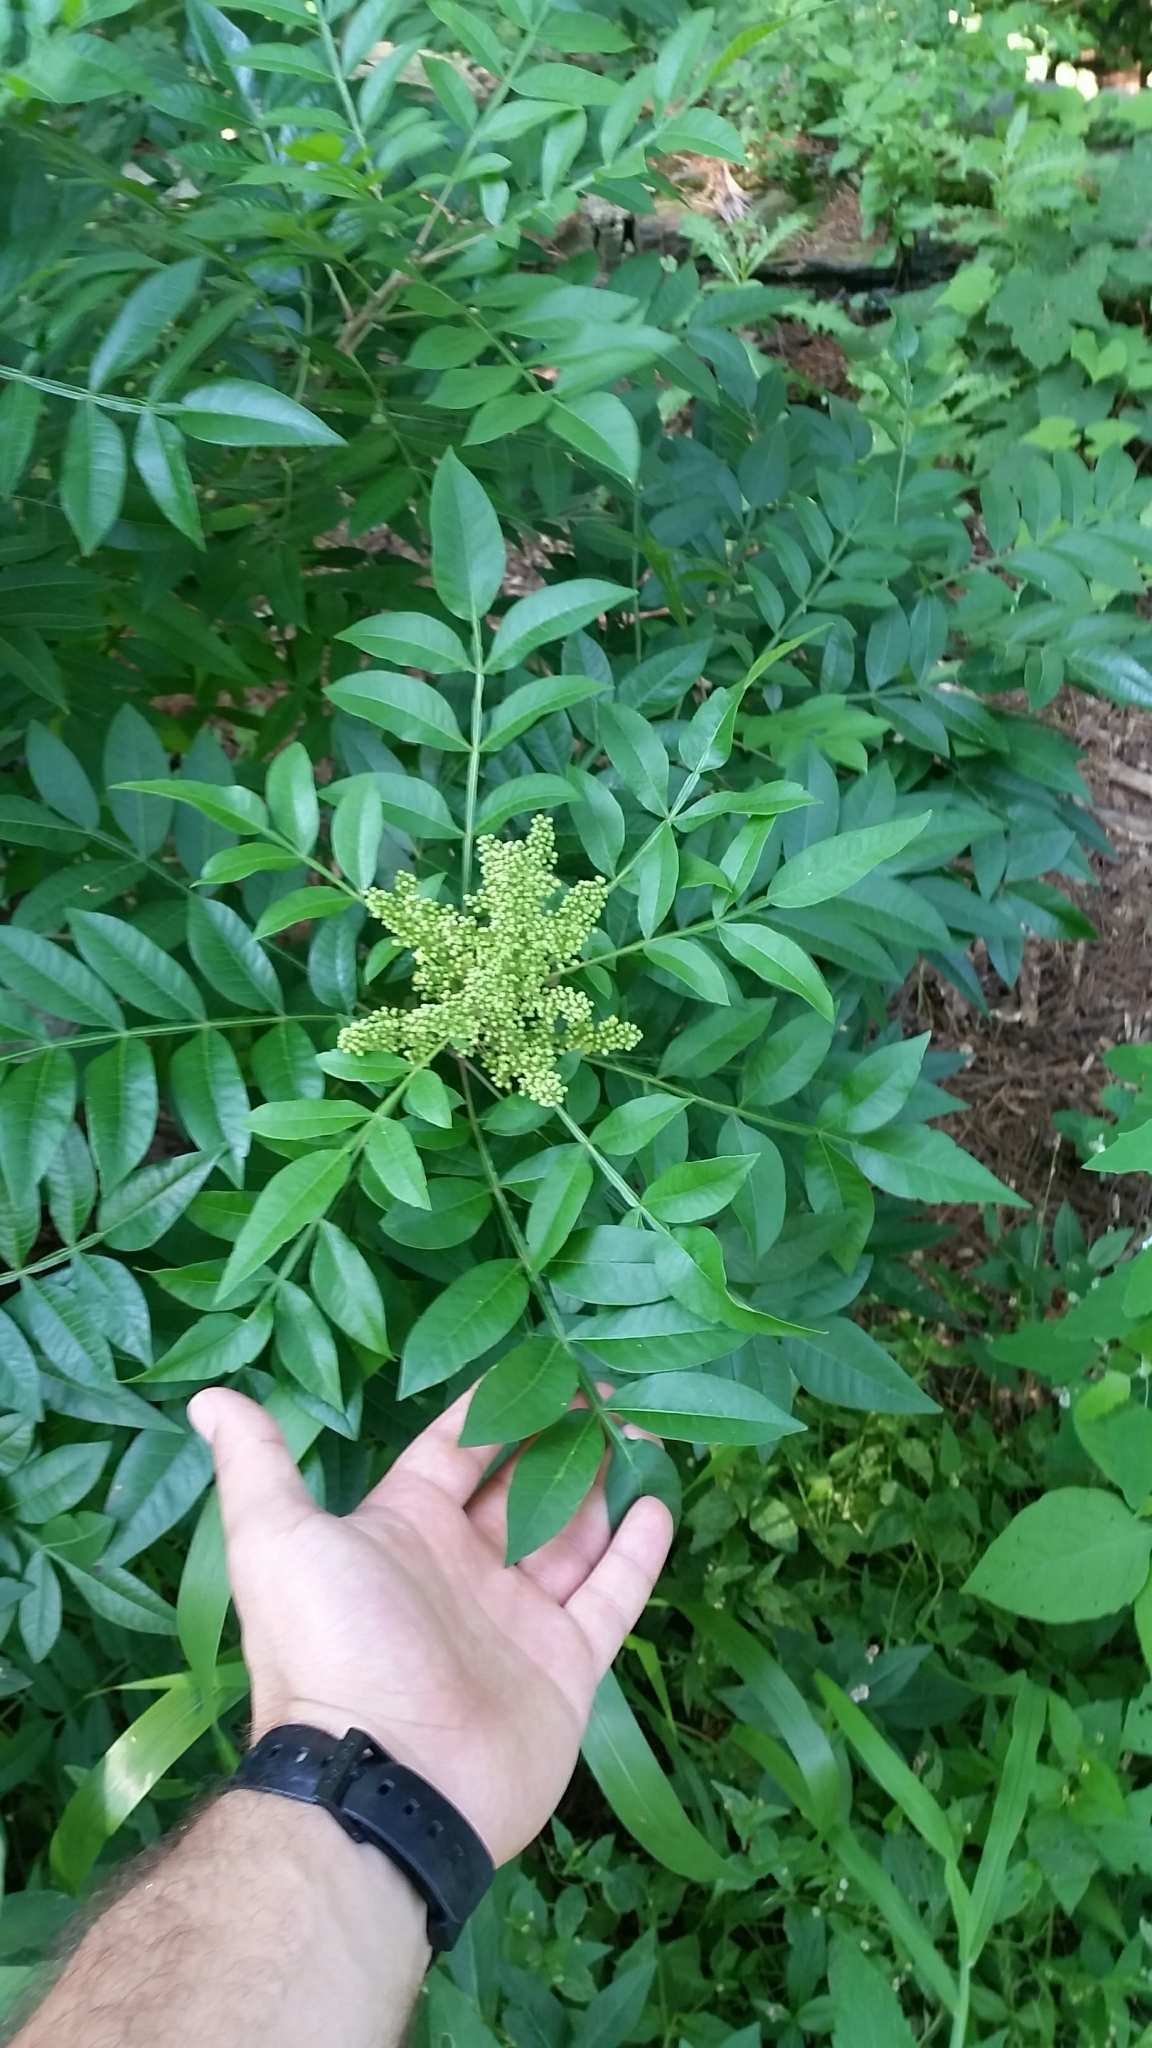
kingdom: Plantae
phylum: Tracheophyta
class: Magnoliopsida
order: Sapindales
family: Anacardiaceae
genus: Rhus
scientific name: Rhus copallina
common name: Shining sumac
